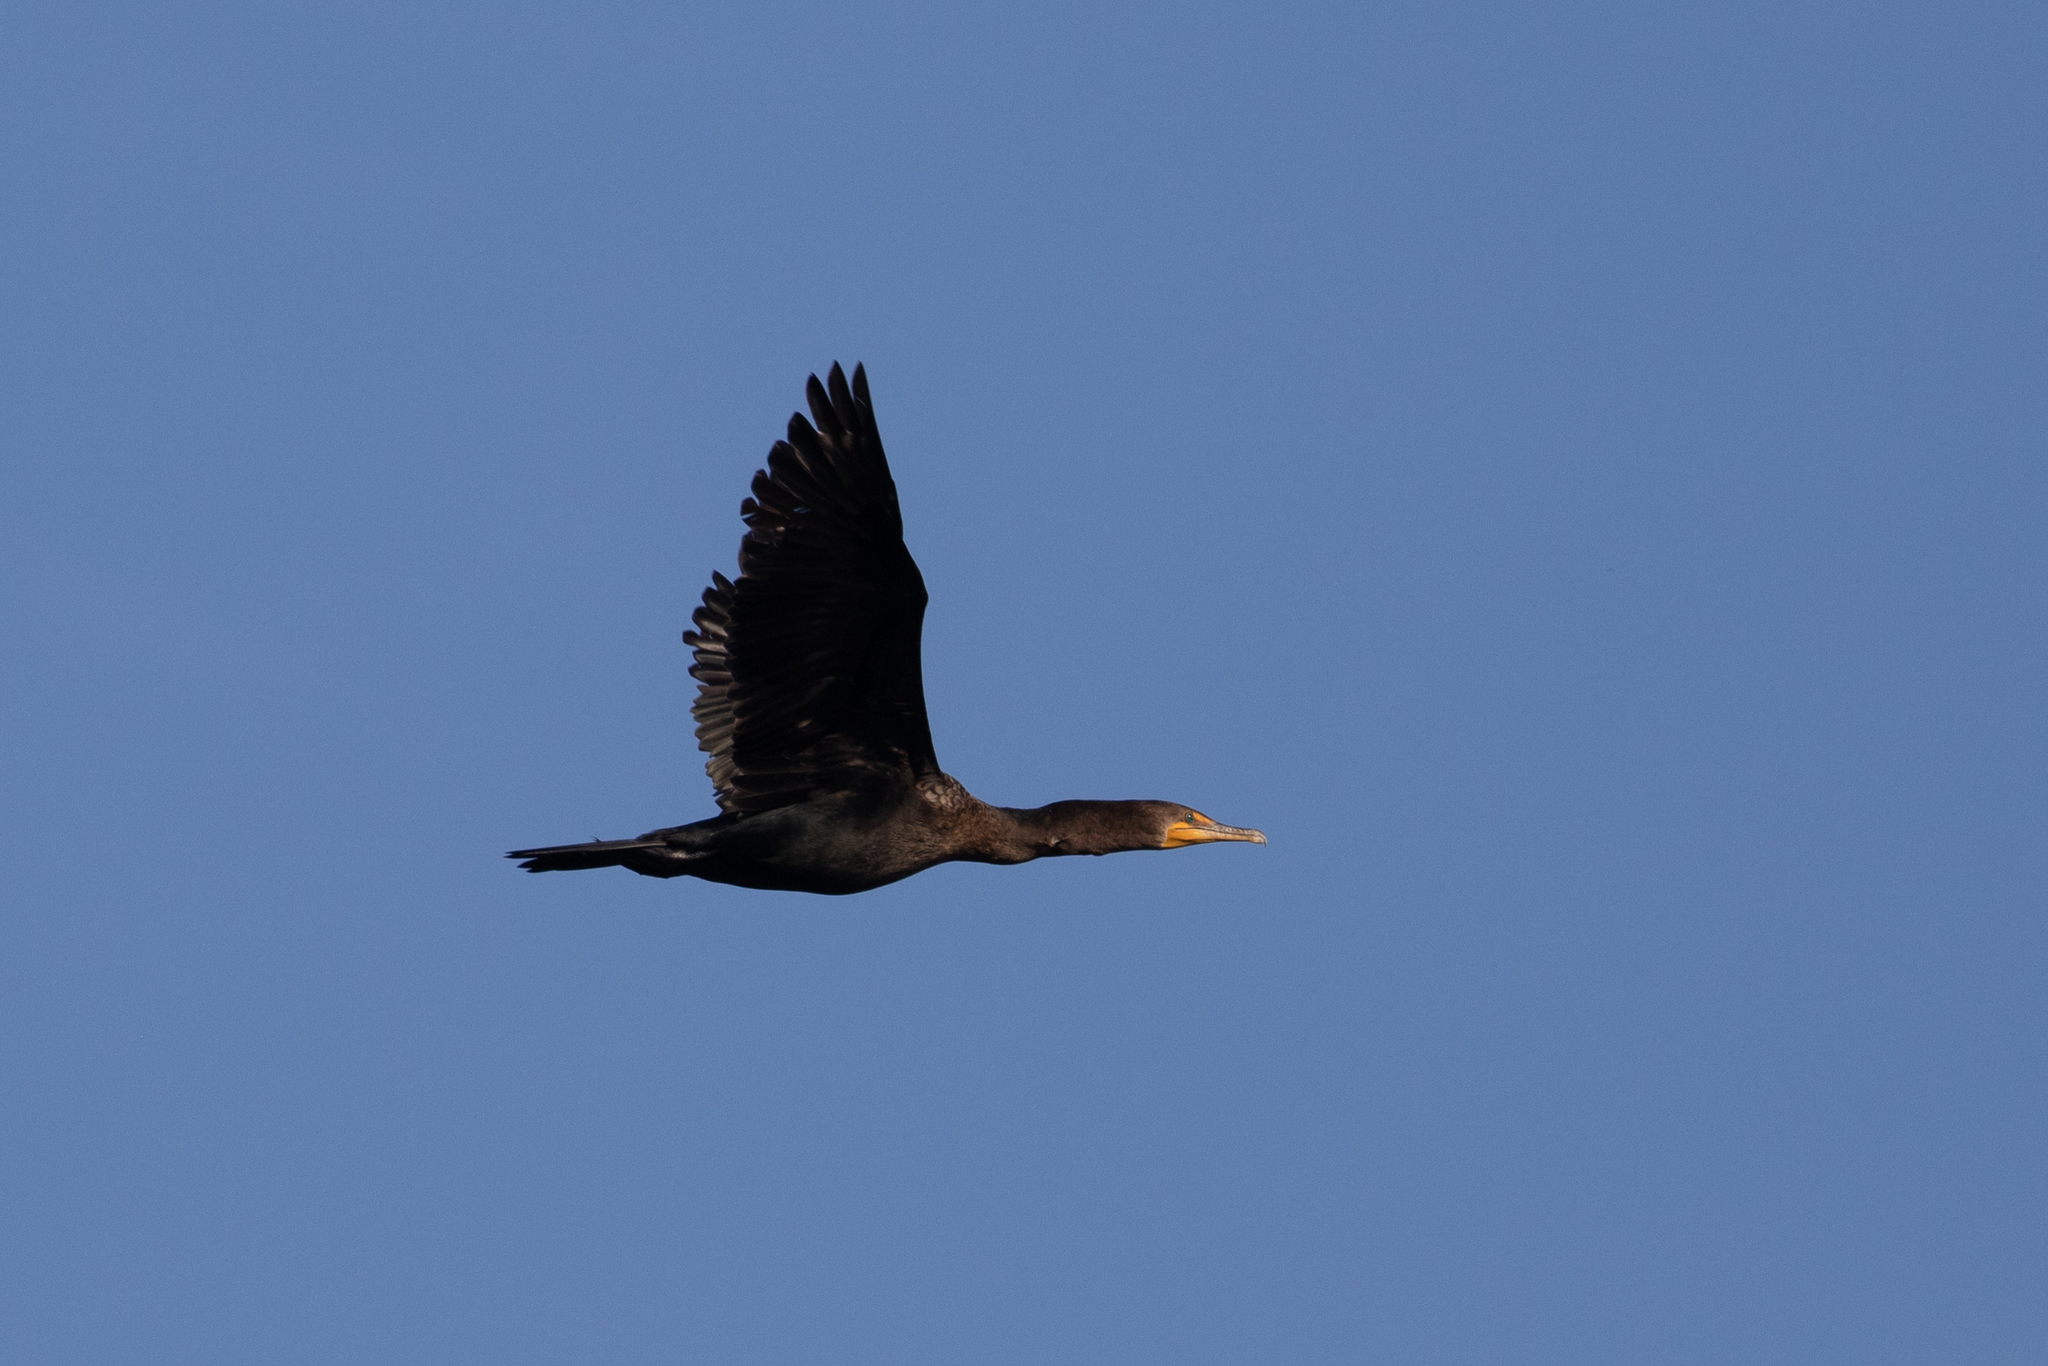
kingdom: Animalia
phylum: Chordata
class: Aves
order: Suliformes
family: Phalacrocoracidae
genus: Phalacrocorax
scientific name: Phalacrocorax auritus
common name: Double-crested cormorant
